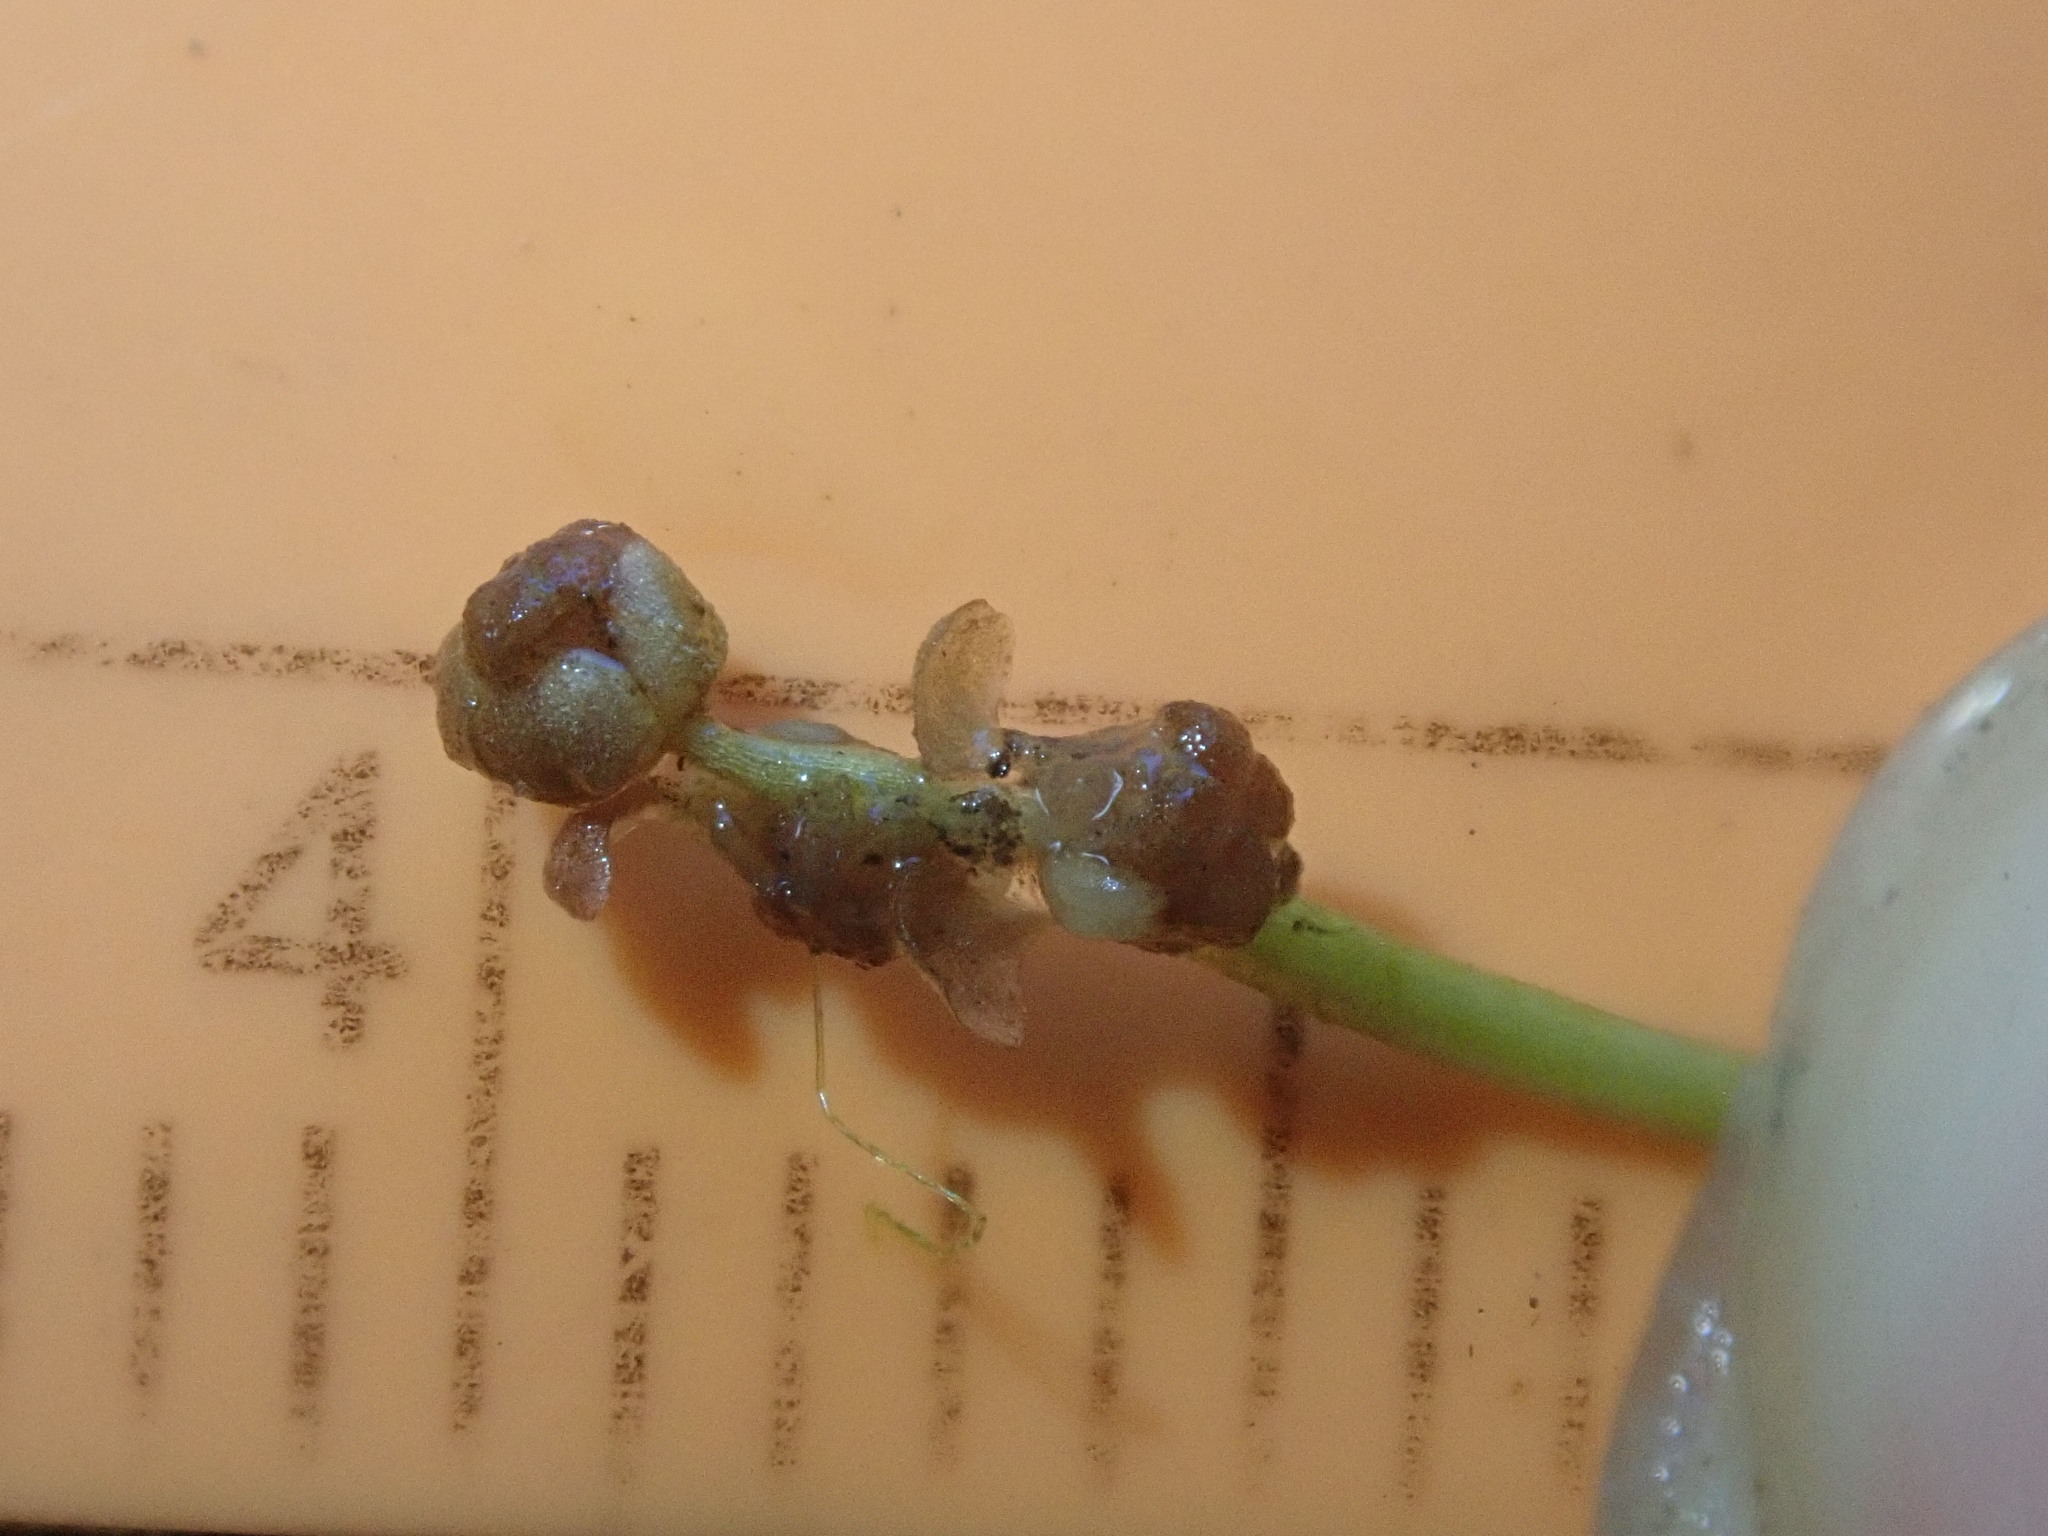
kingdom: Plantae
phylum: Tracheophyta
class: Liliopsida
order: Alismatales
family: Potamogetonaceae
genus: Potamogeton
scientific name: Potamogeton foliosus
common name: Leafy pondweed
